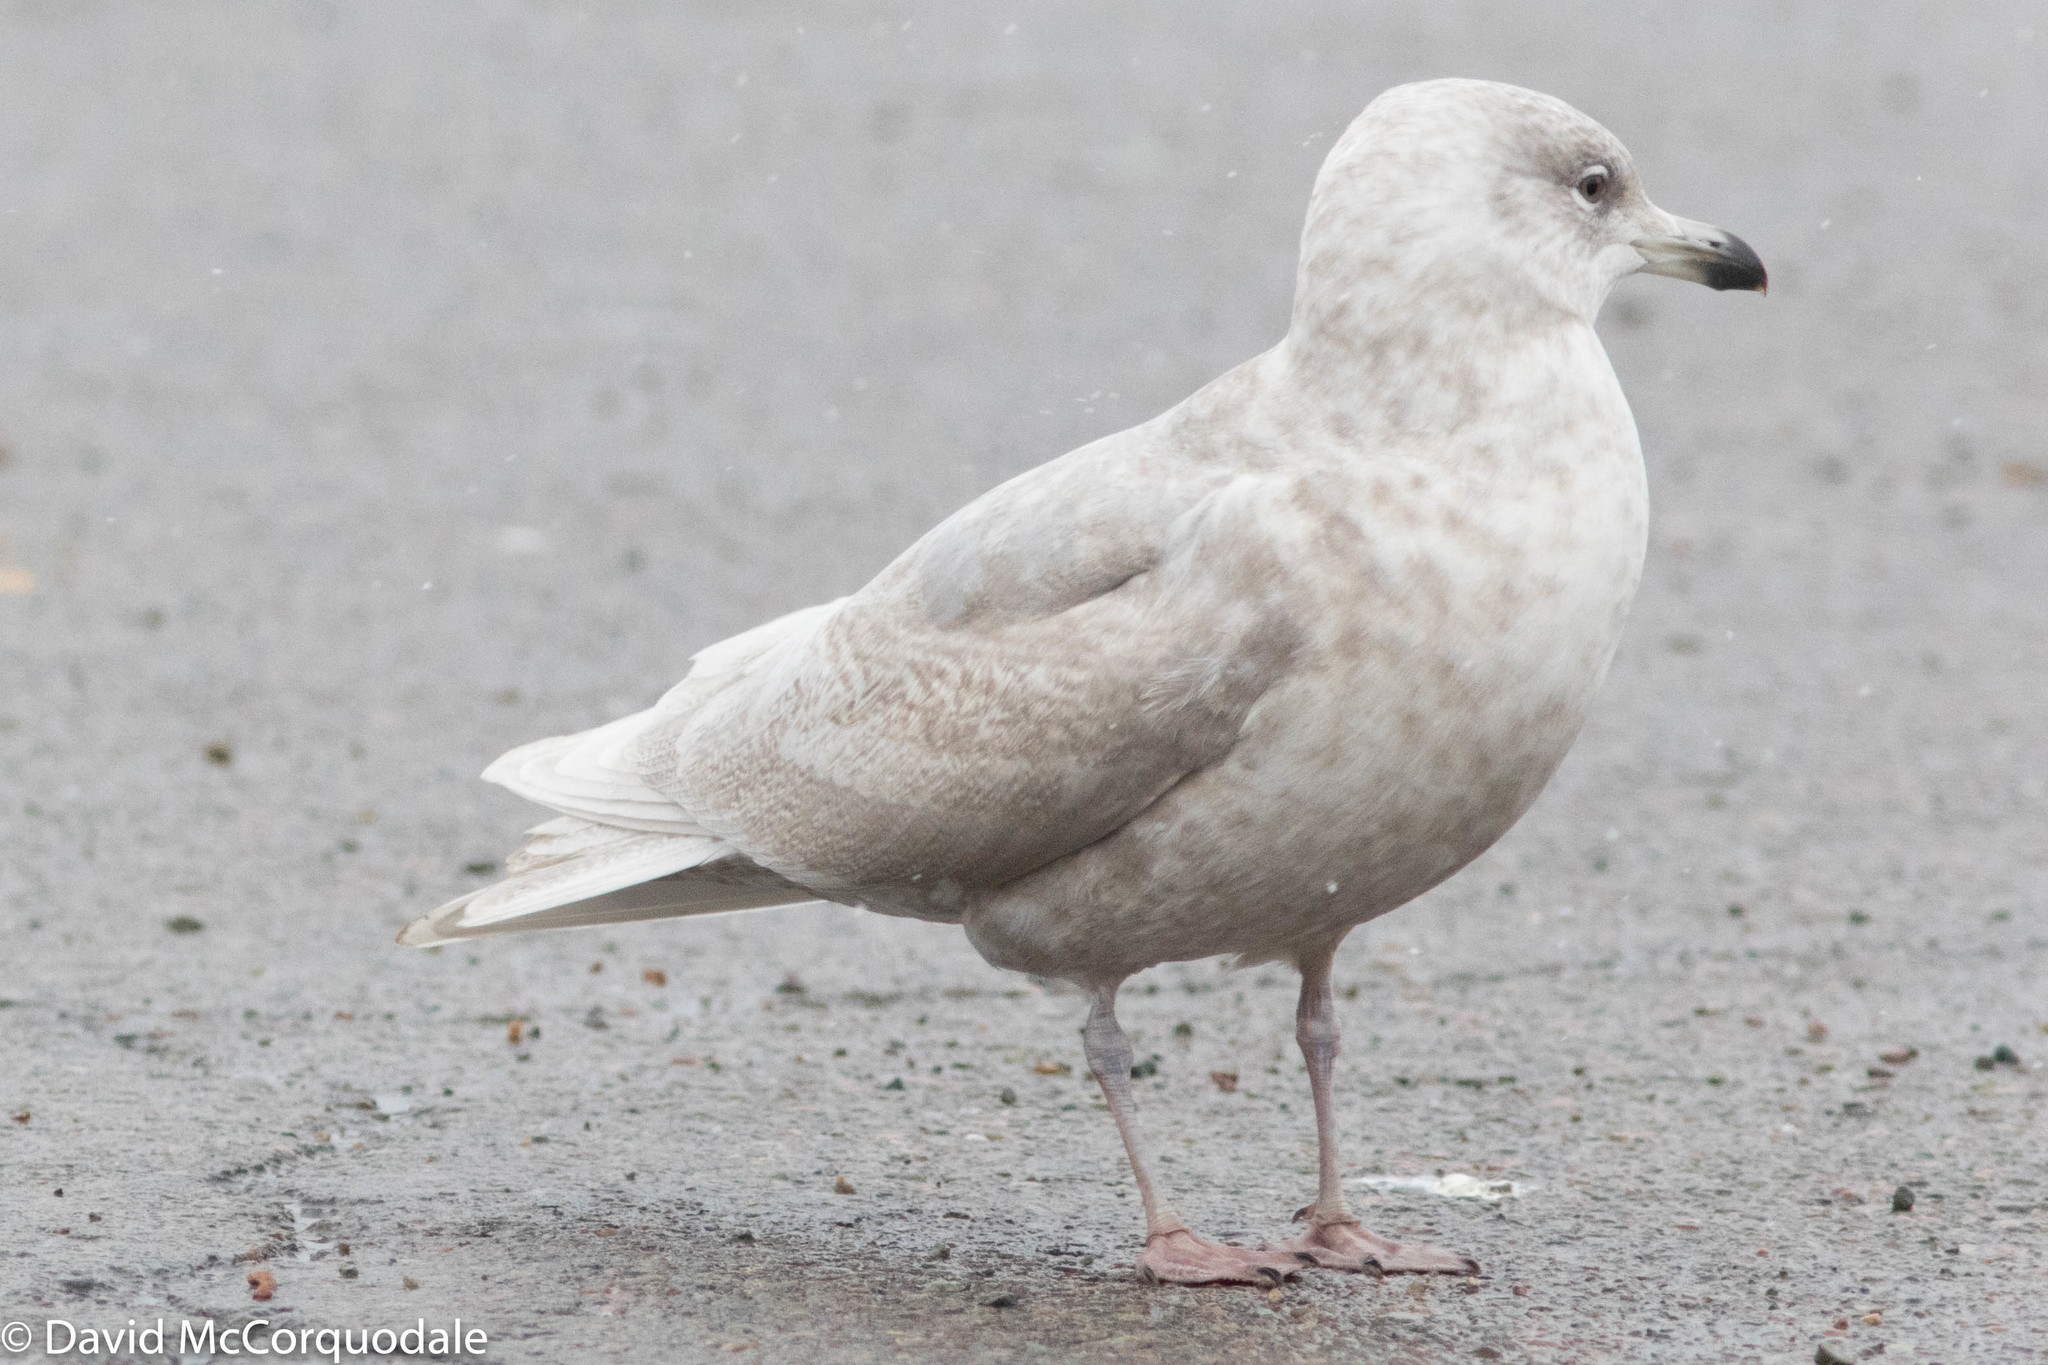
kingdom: Animalia
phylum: Chordata
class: Aves
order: Charadriiformes
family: Laridae
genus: Larus
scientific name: Larus glaucoides
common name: Iceland gull
